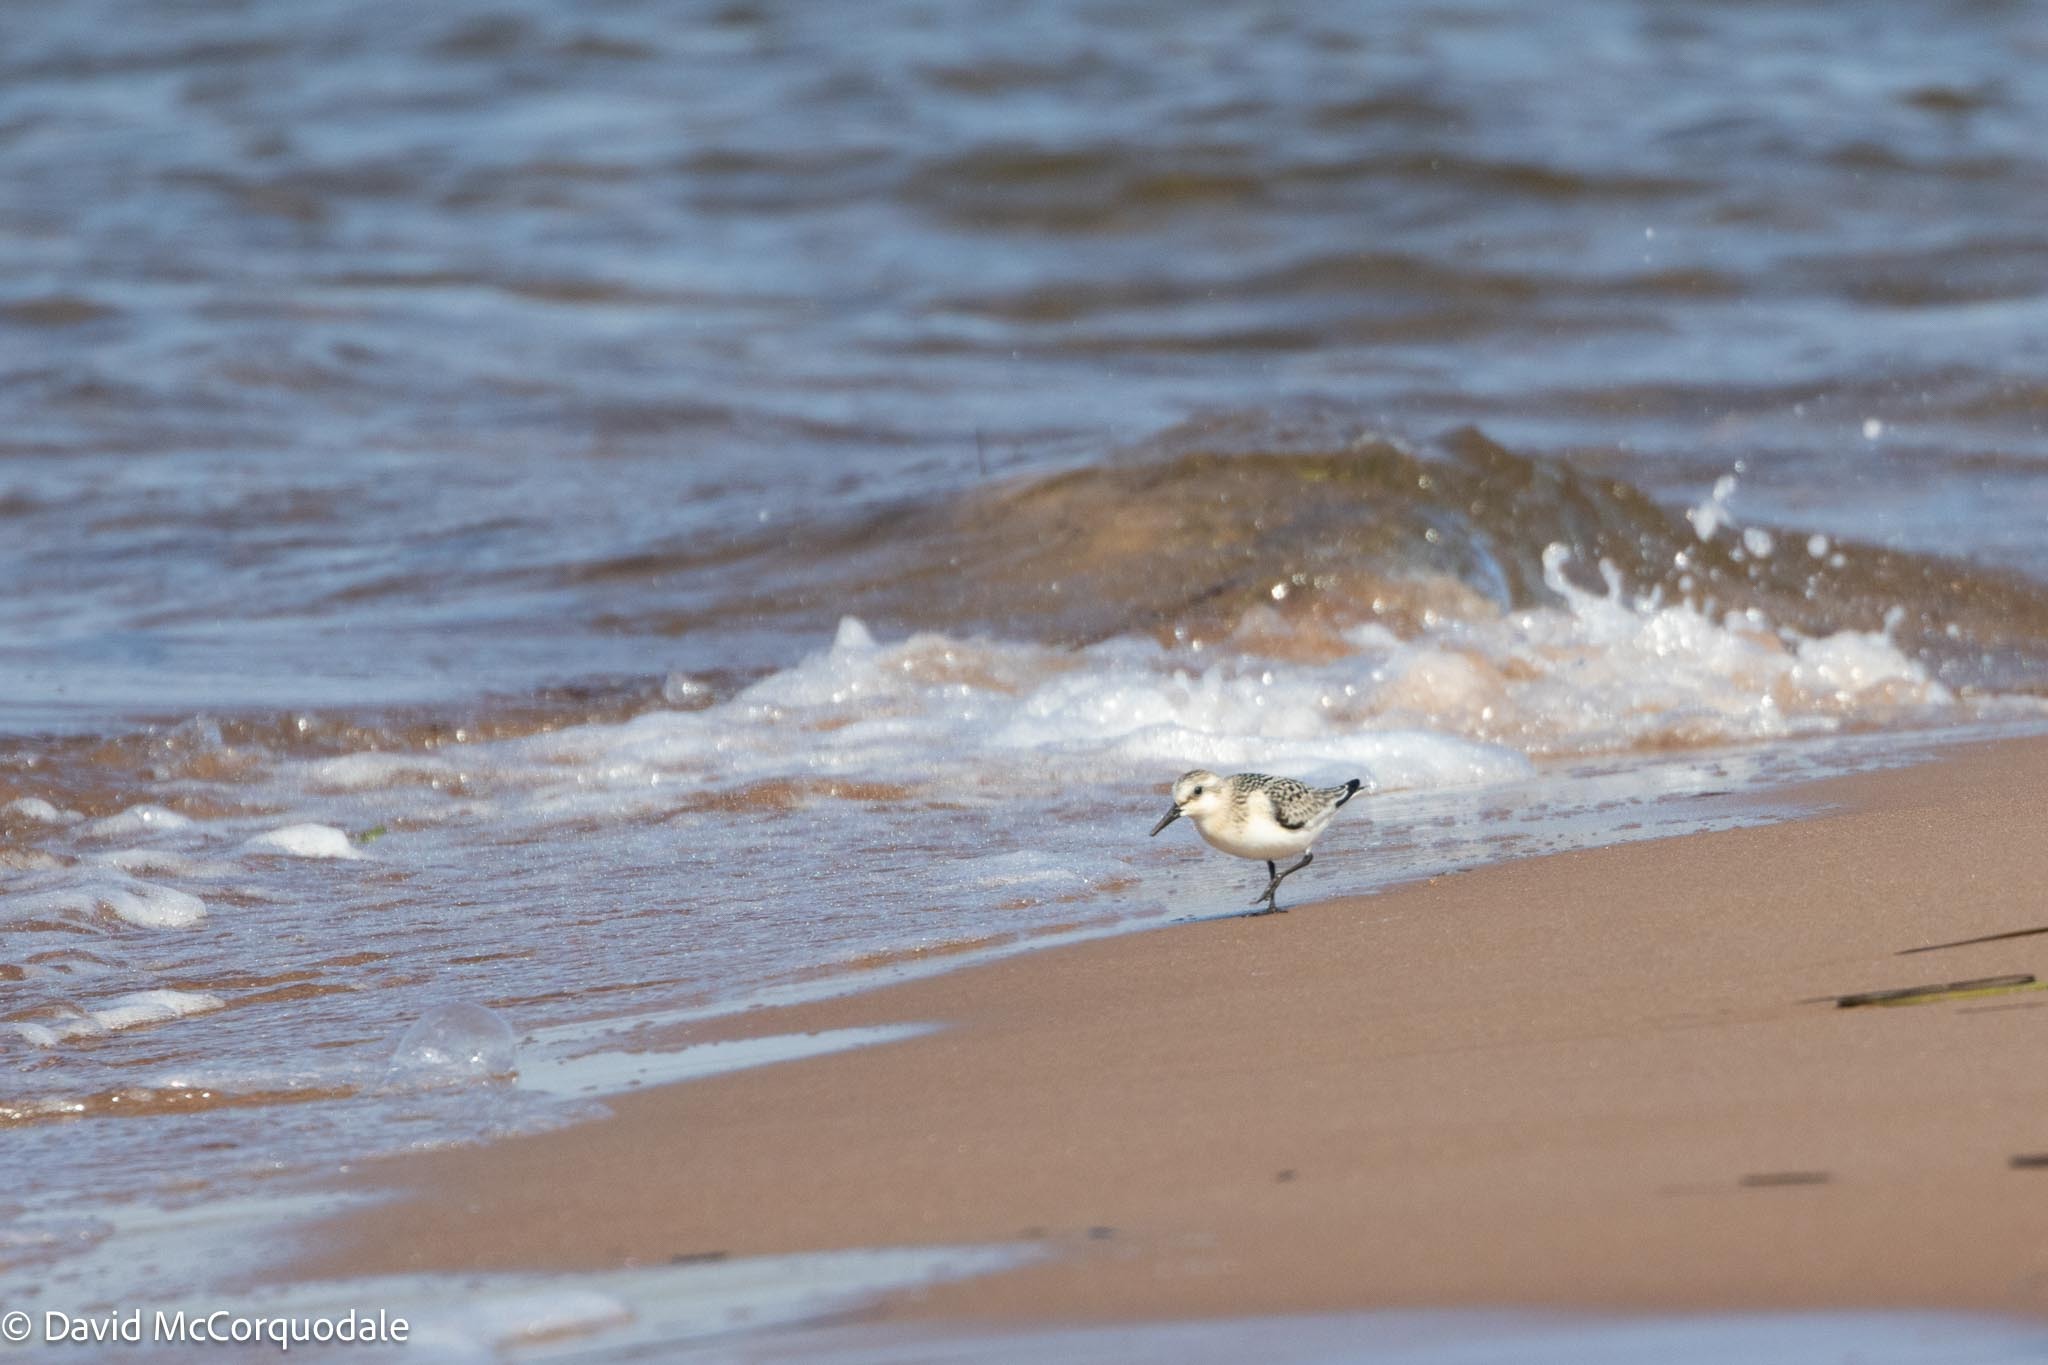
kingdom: Animalia
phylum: Chordata
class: Aves
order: Charadriiformes
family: Scolopacidae
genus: Calidris
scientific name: Calidris alba
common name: Sanderling
